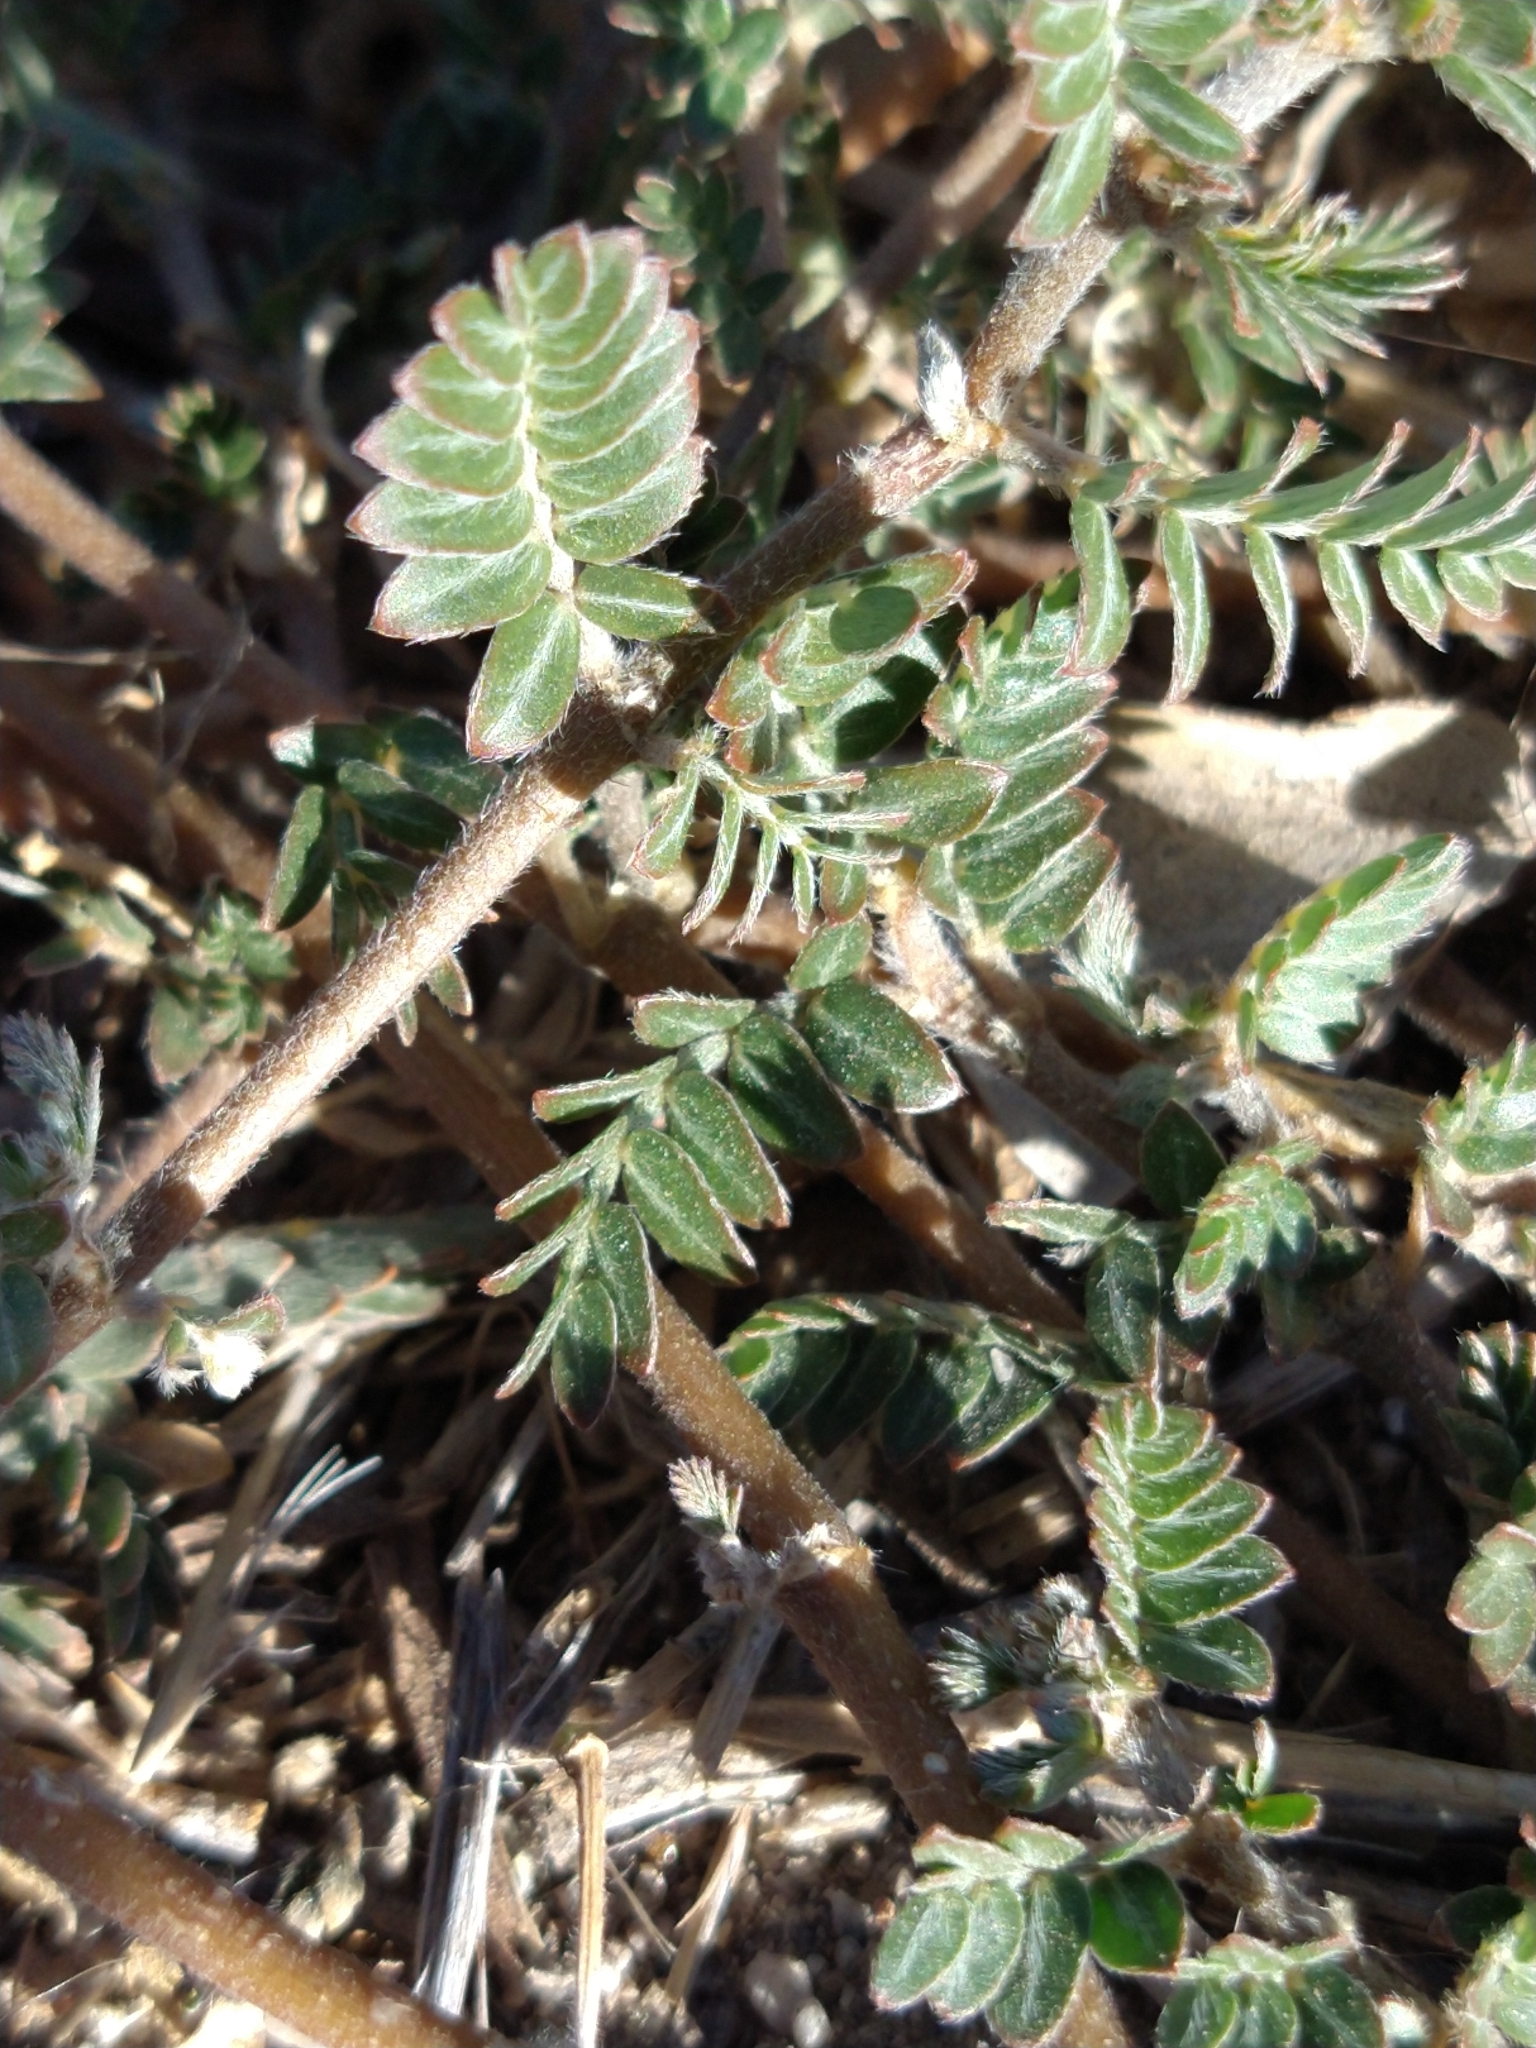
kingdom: Plantae
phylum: Tracheophyta
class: Magnoliopsida
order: Zygophyllales
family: Zygophyllaceae
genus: Tribulus
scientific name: Tribulus terrestris
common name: Puncturevine
